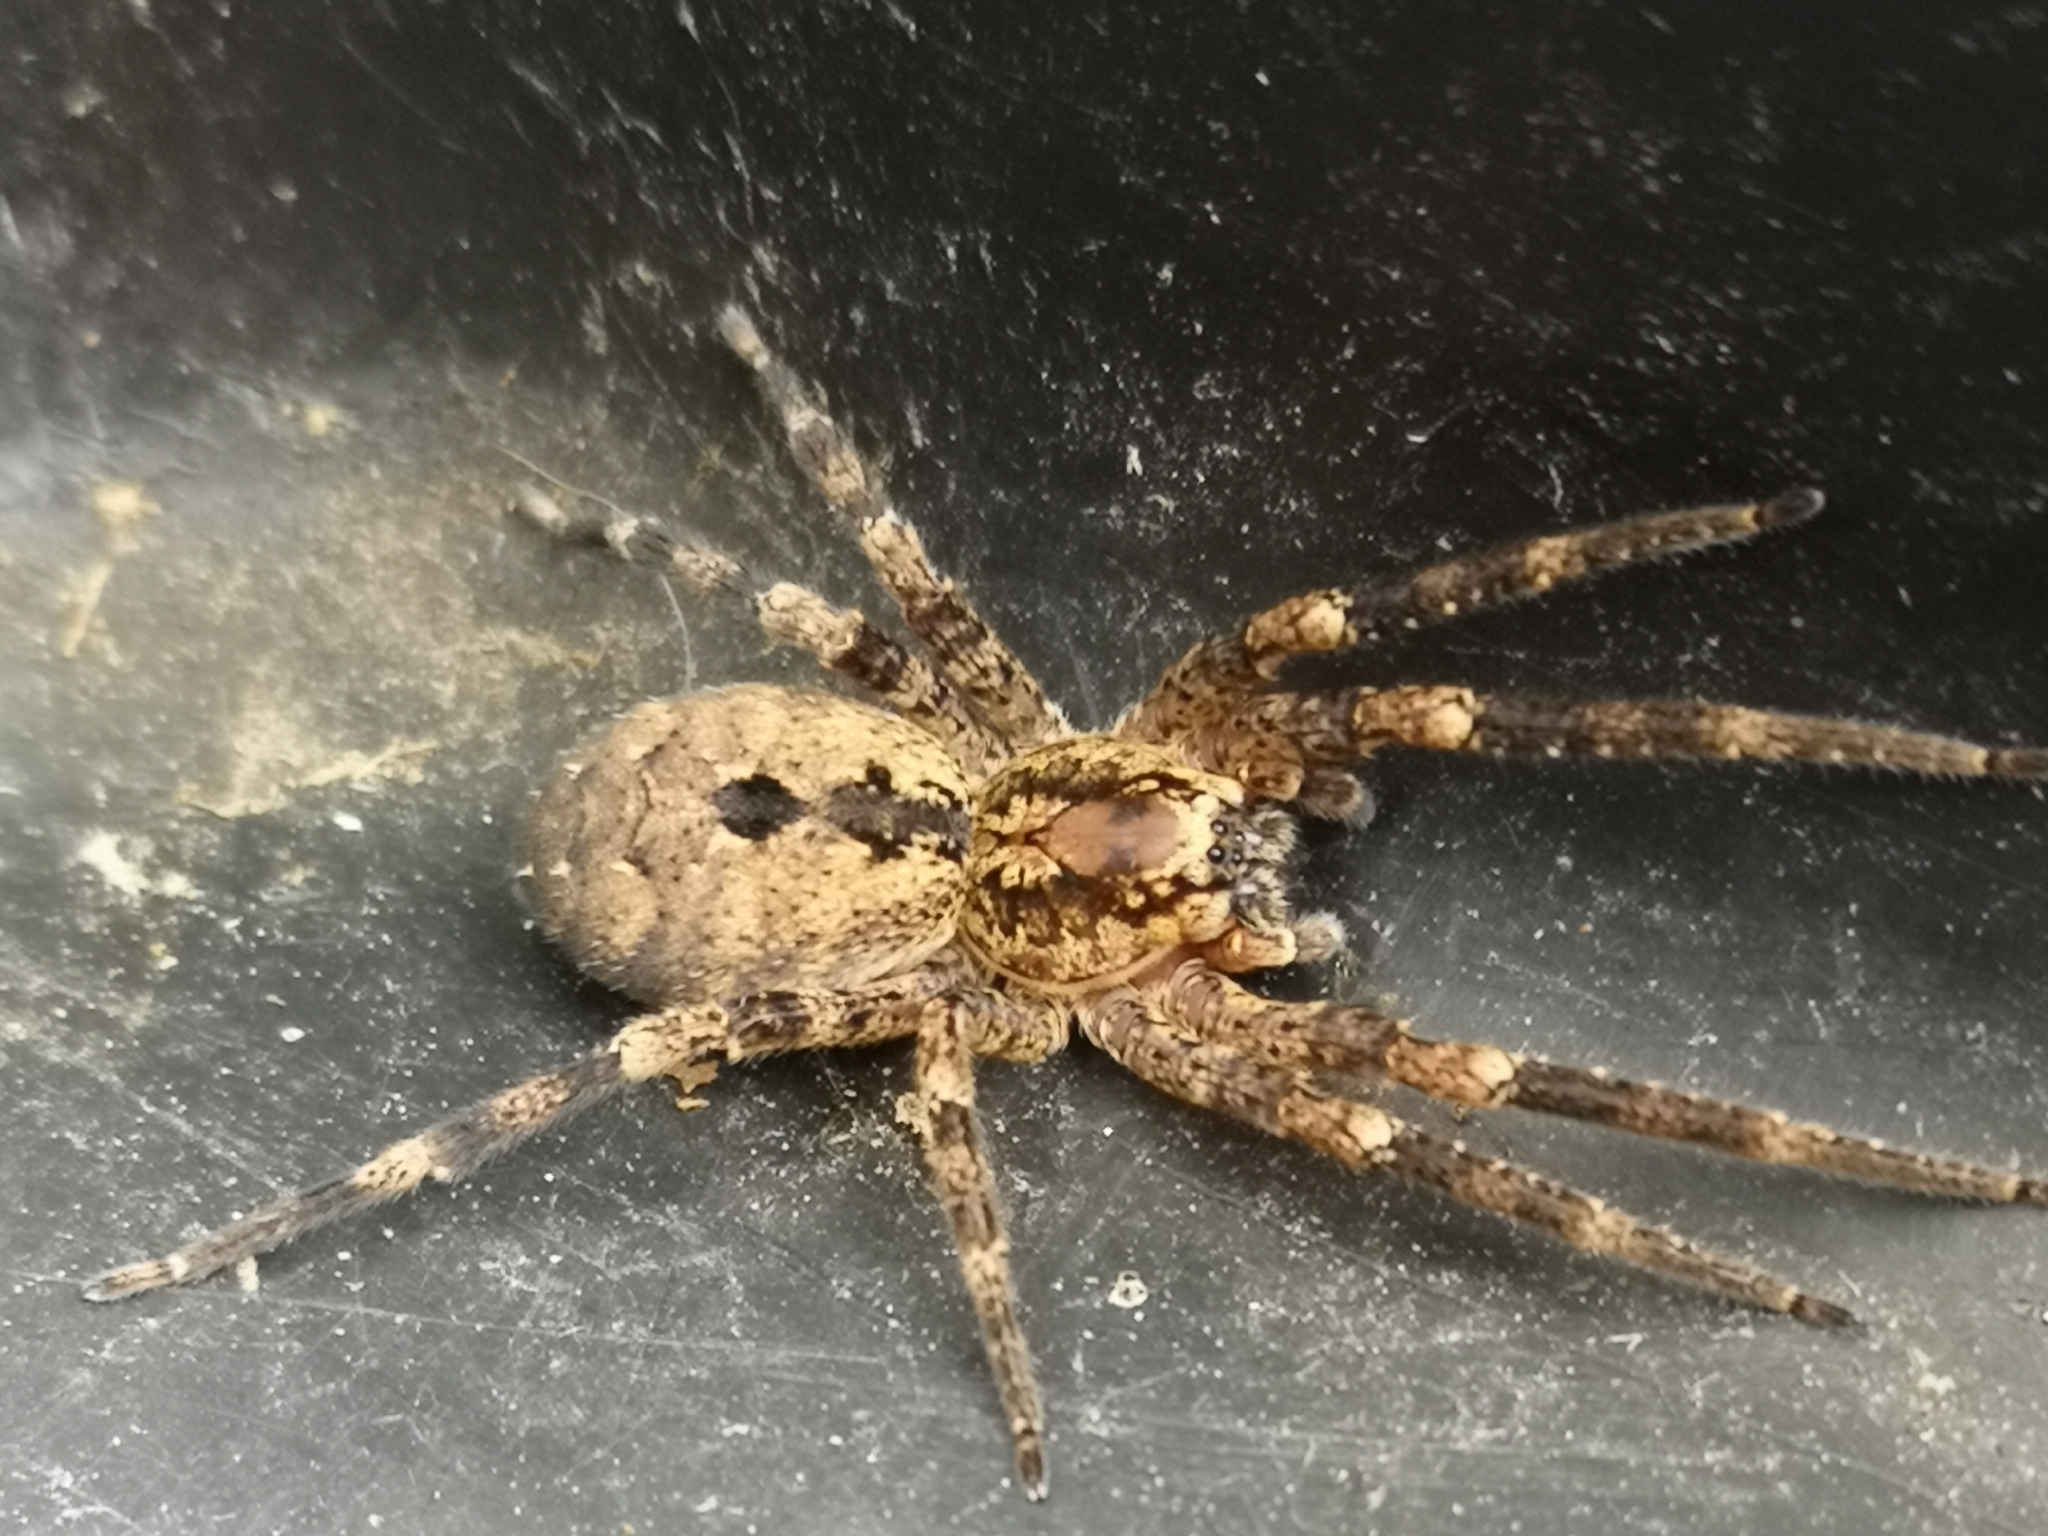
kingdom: Animalia
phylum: Arthropoda
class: Arachnida
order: Araneae
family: Zoropsidae
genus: Zoropsis
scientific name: Zoropsis spinimana
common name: Zoropsid spider
